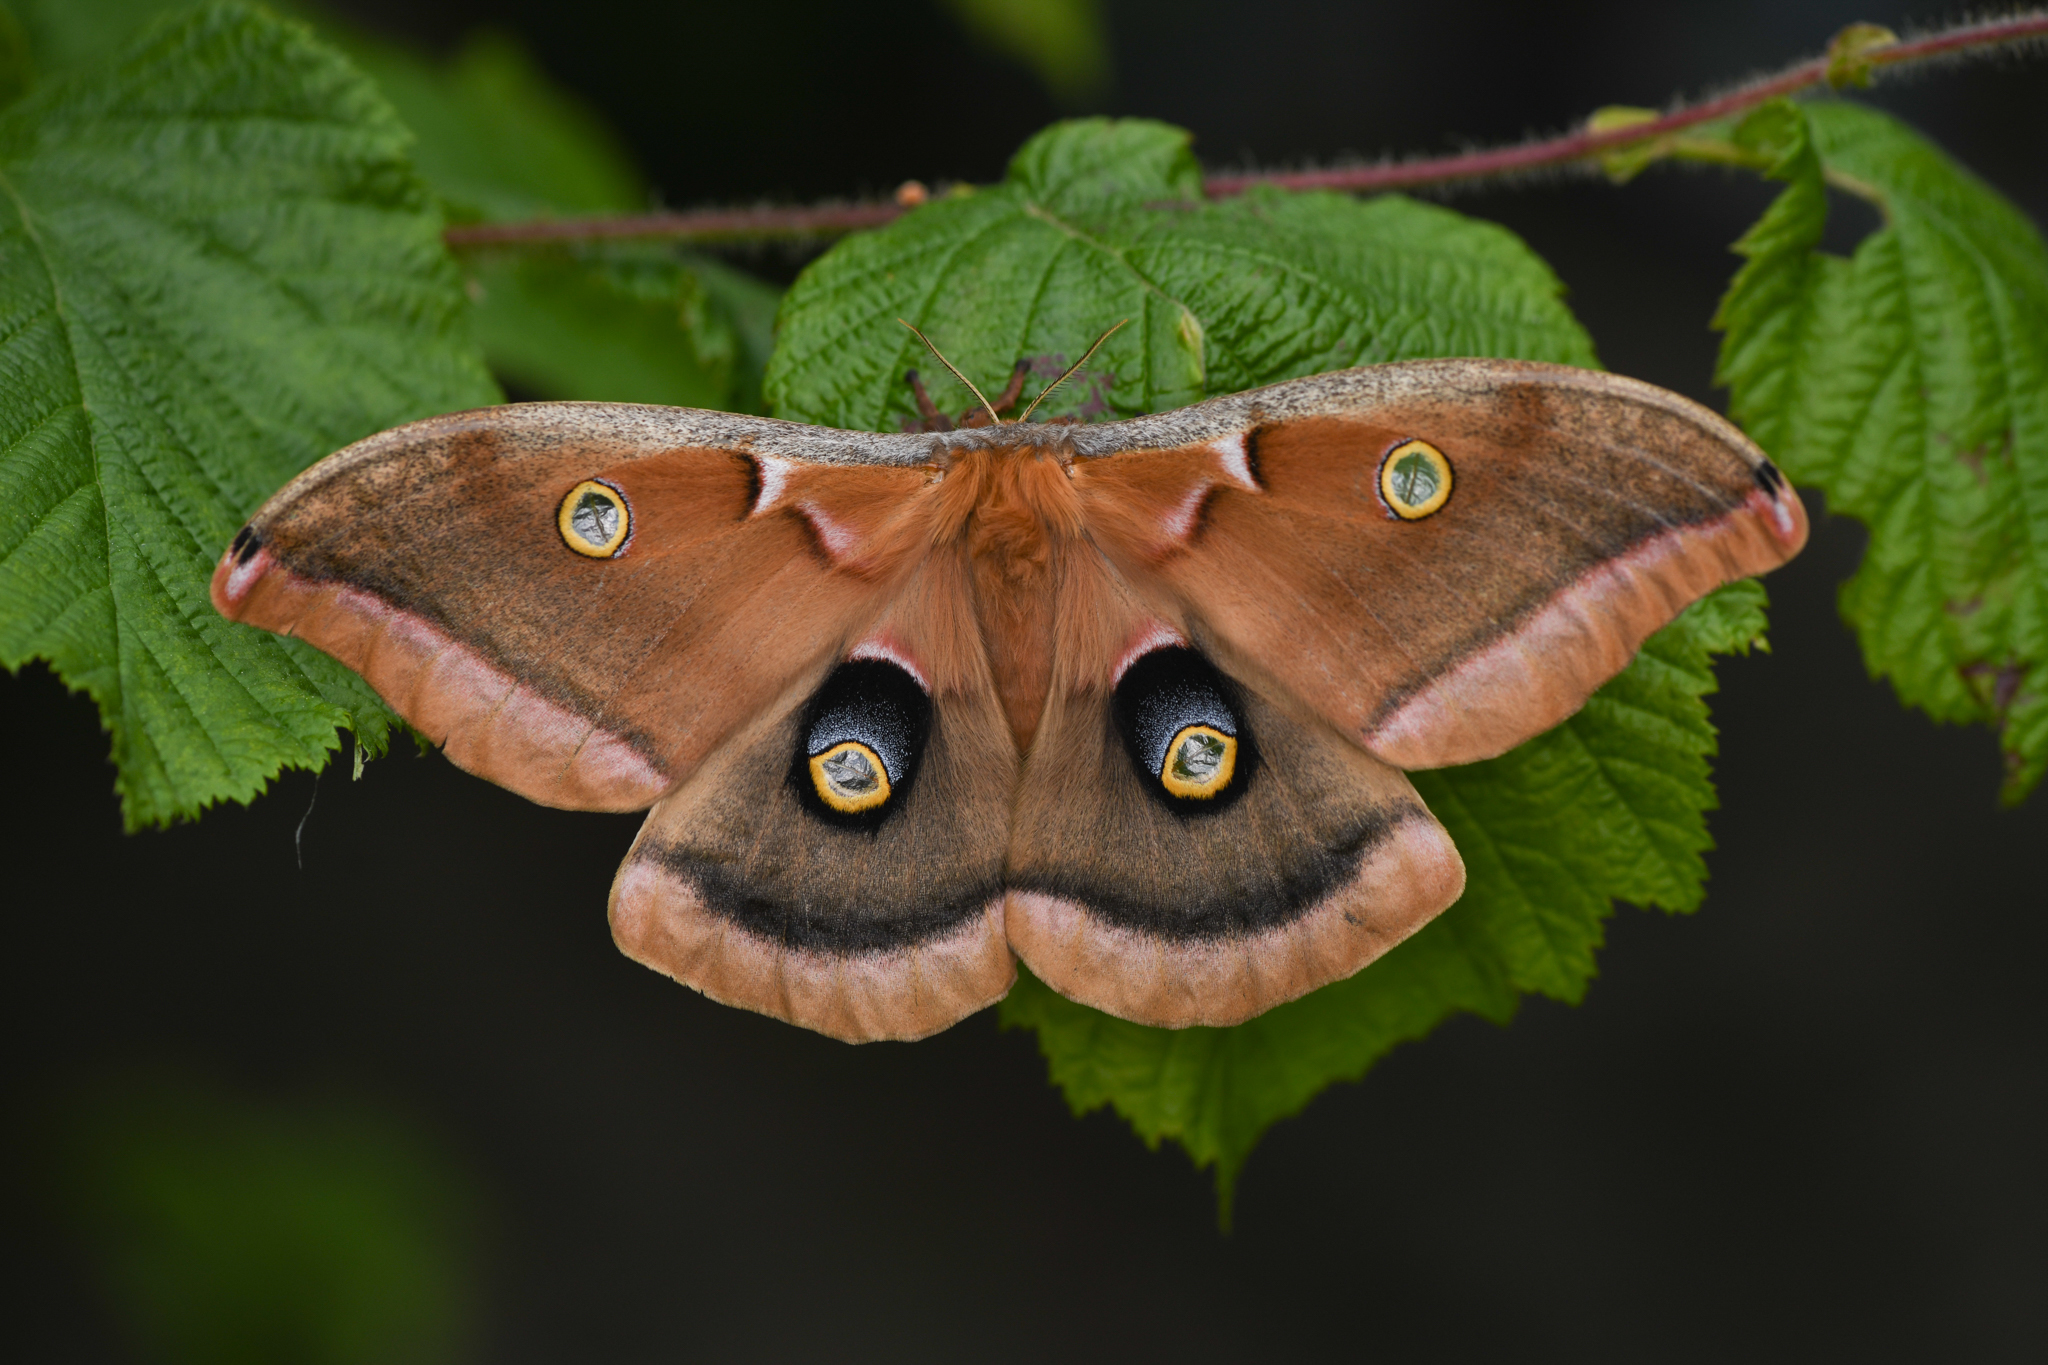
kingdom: Animalia
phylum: Arthropoda
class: Insecta
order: Lepidoptera
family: Saturniidae
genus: Antheraea
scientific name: Antheraea polyphemus
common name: Polyphemus moth
